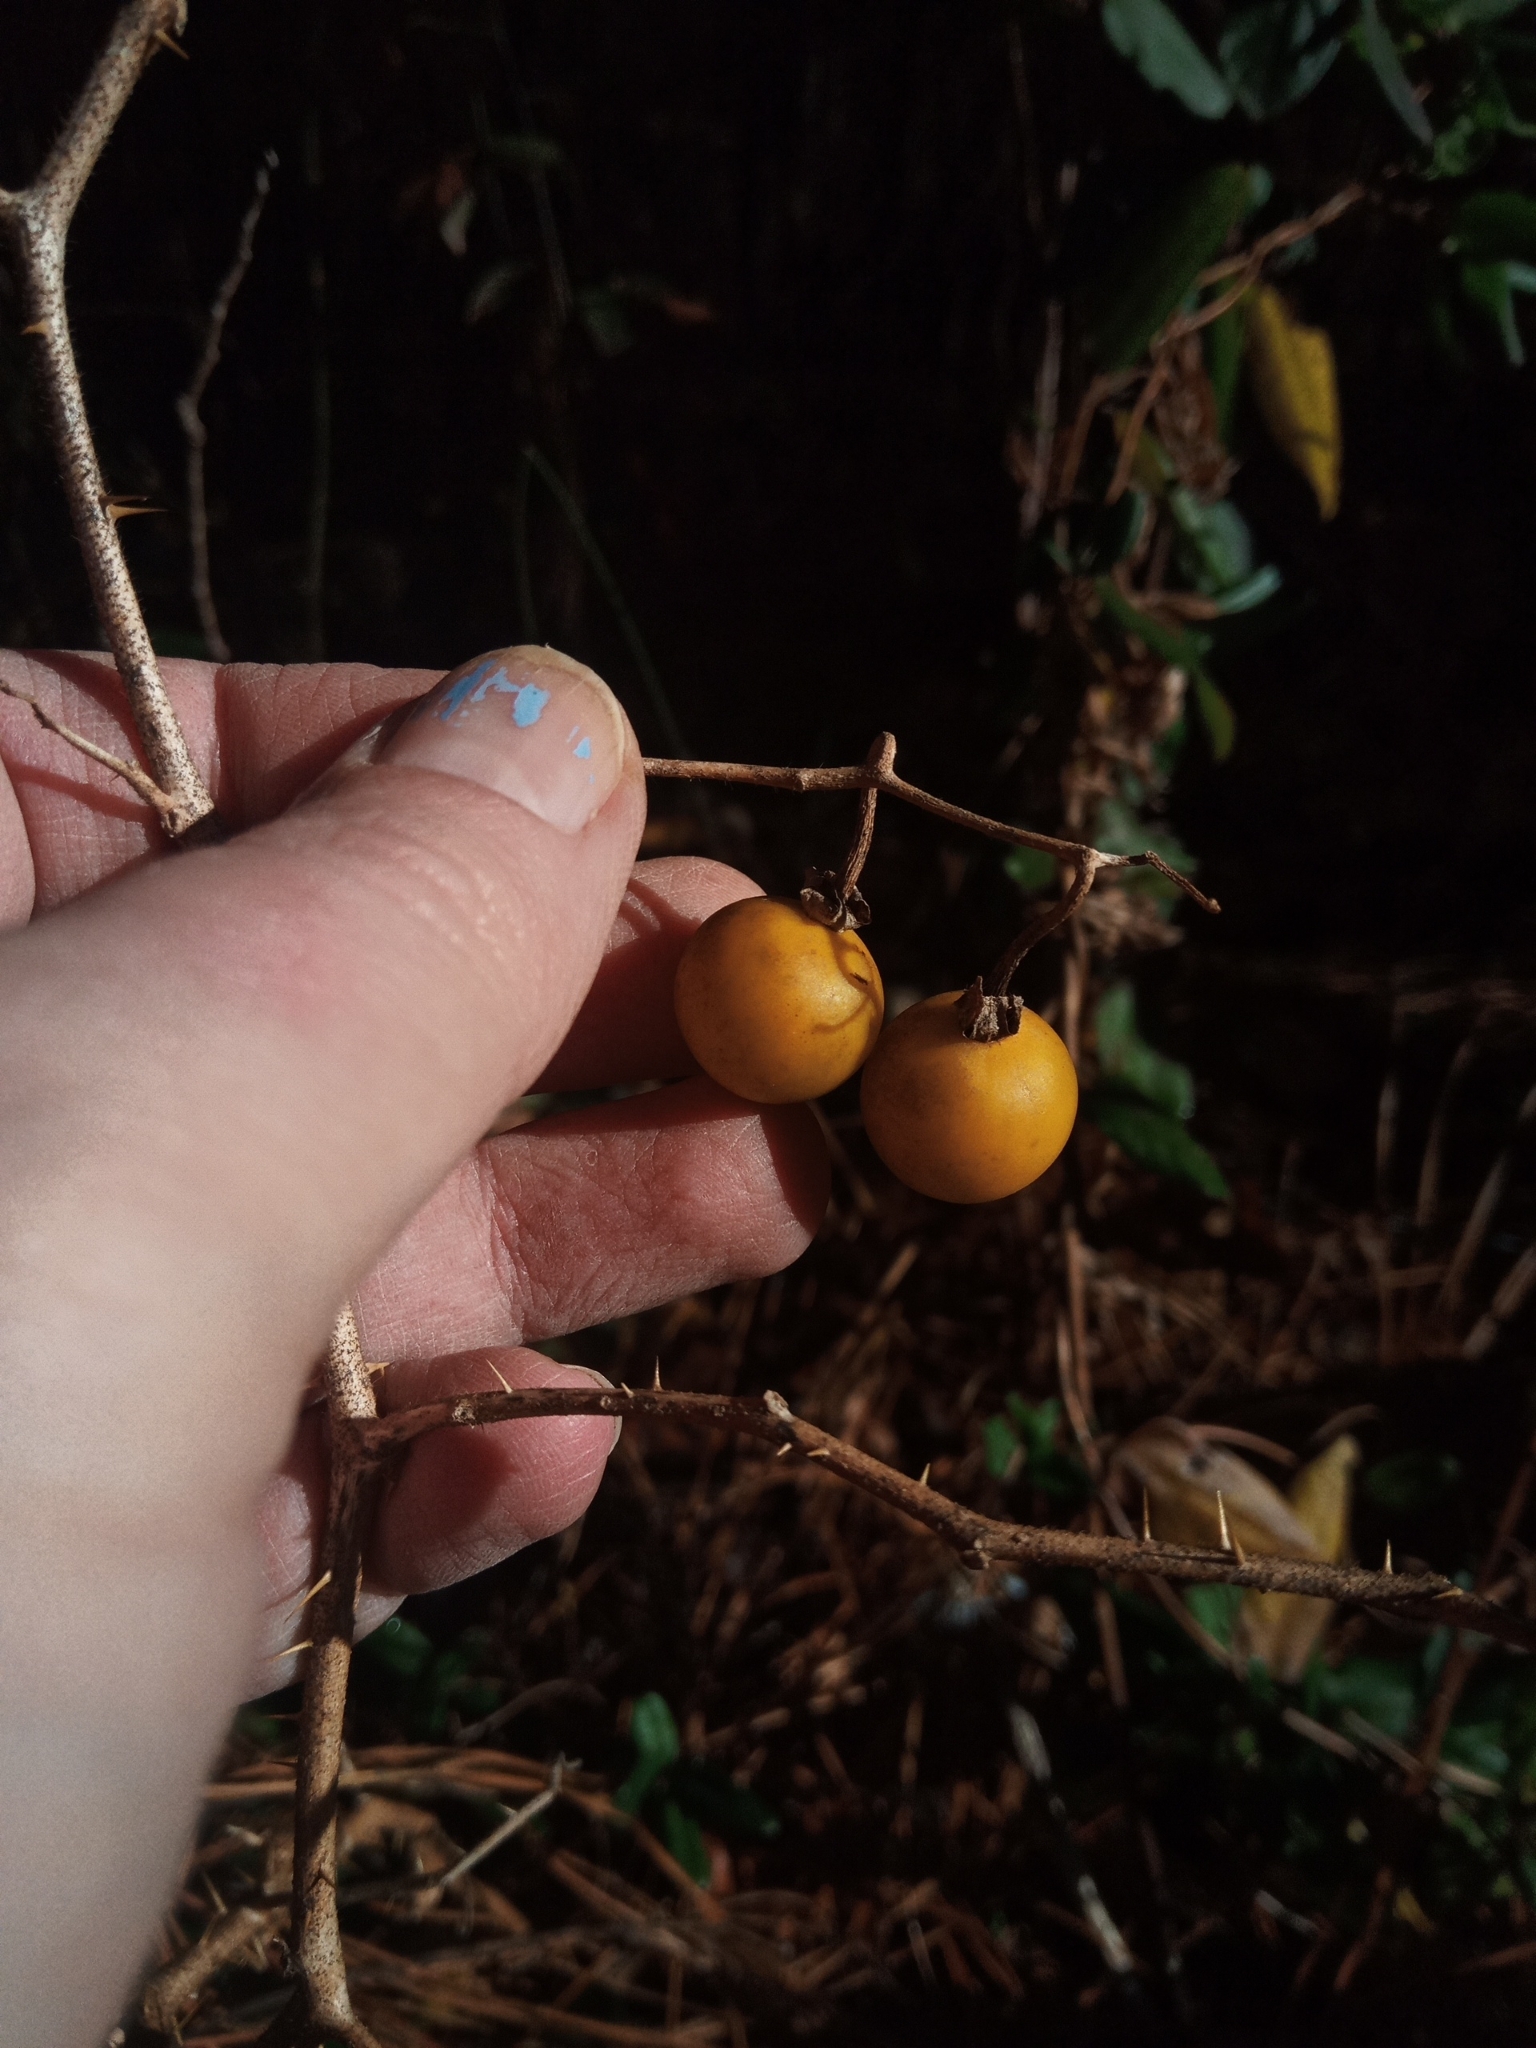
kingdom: Plantae
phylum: Tracheophyta
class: Magnoliopsida
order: Solanales
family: Solanaceae
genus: Solanum
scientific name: Solanum carolinense
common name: Horse-nettle
